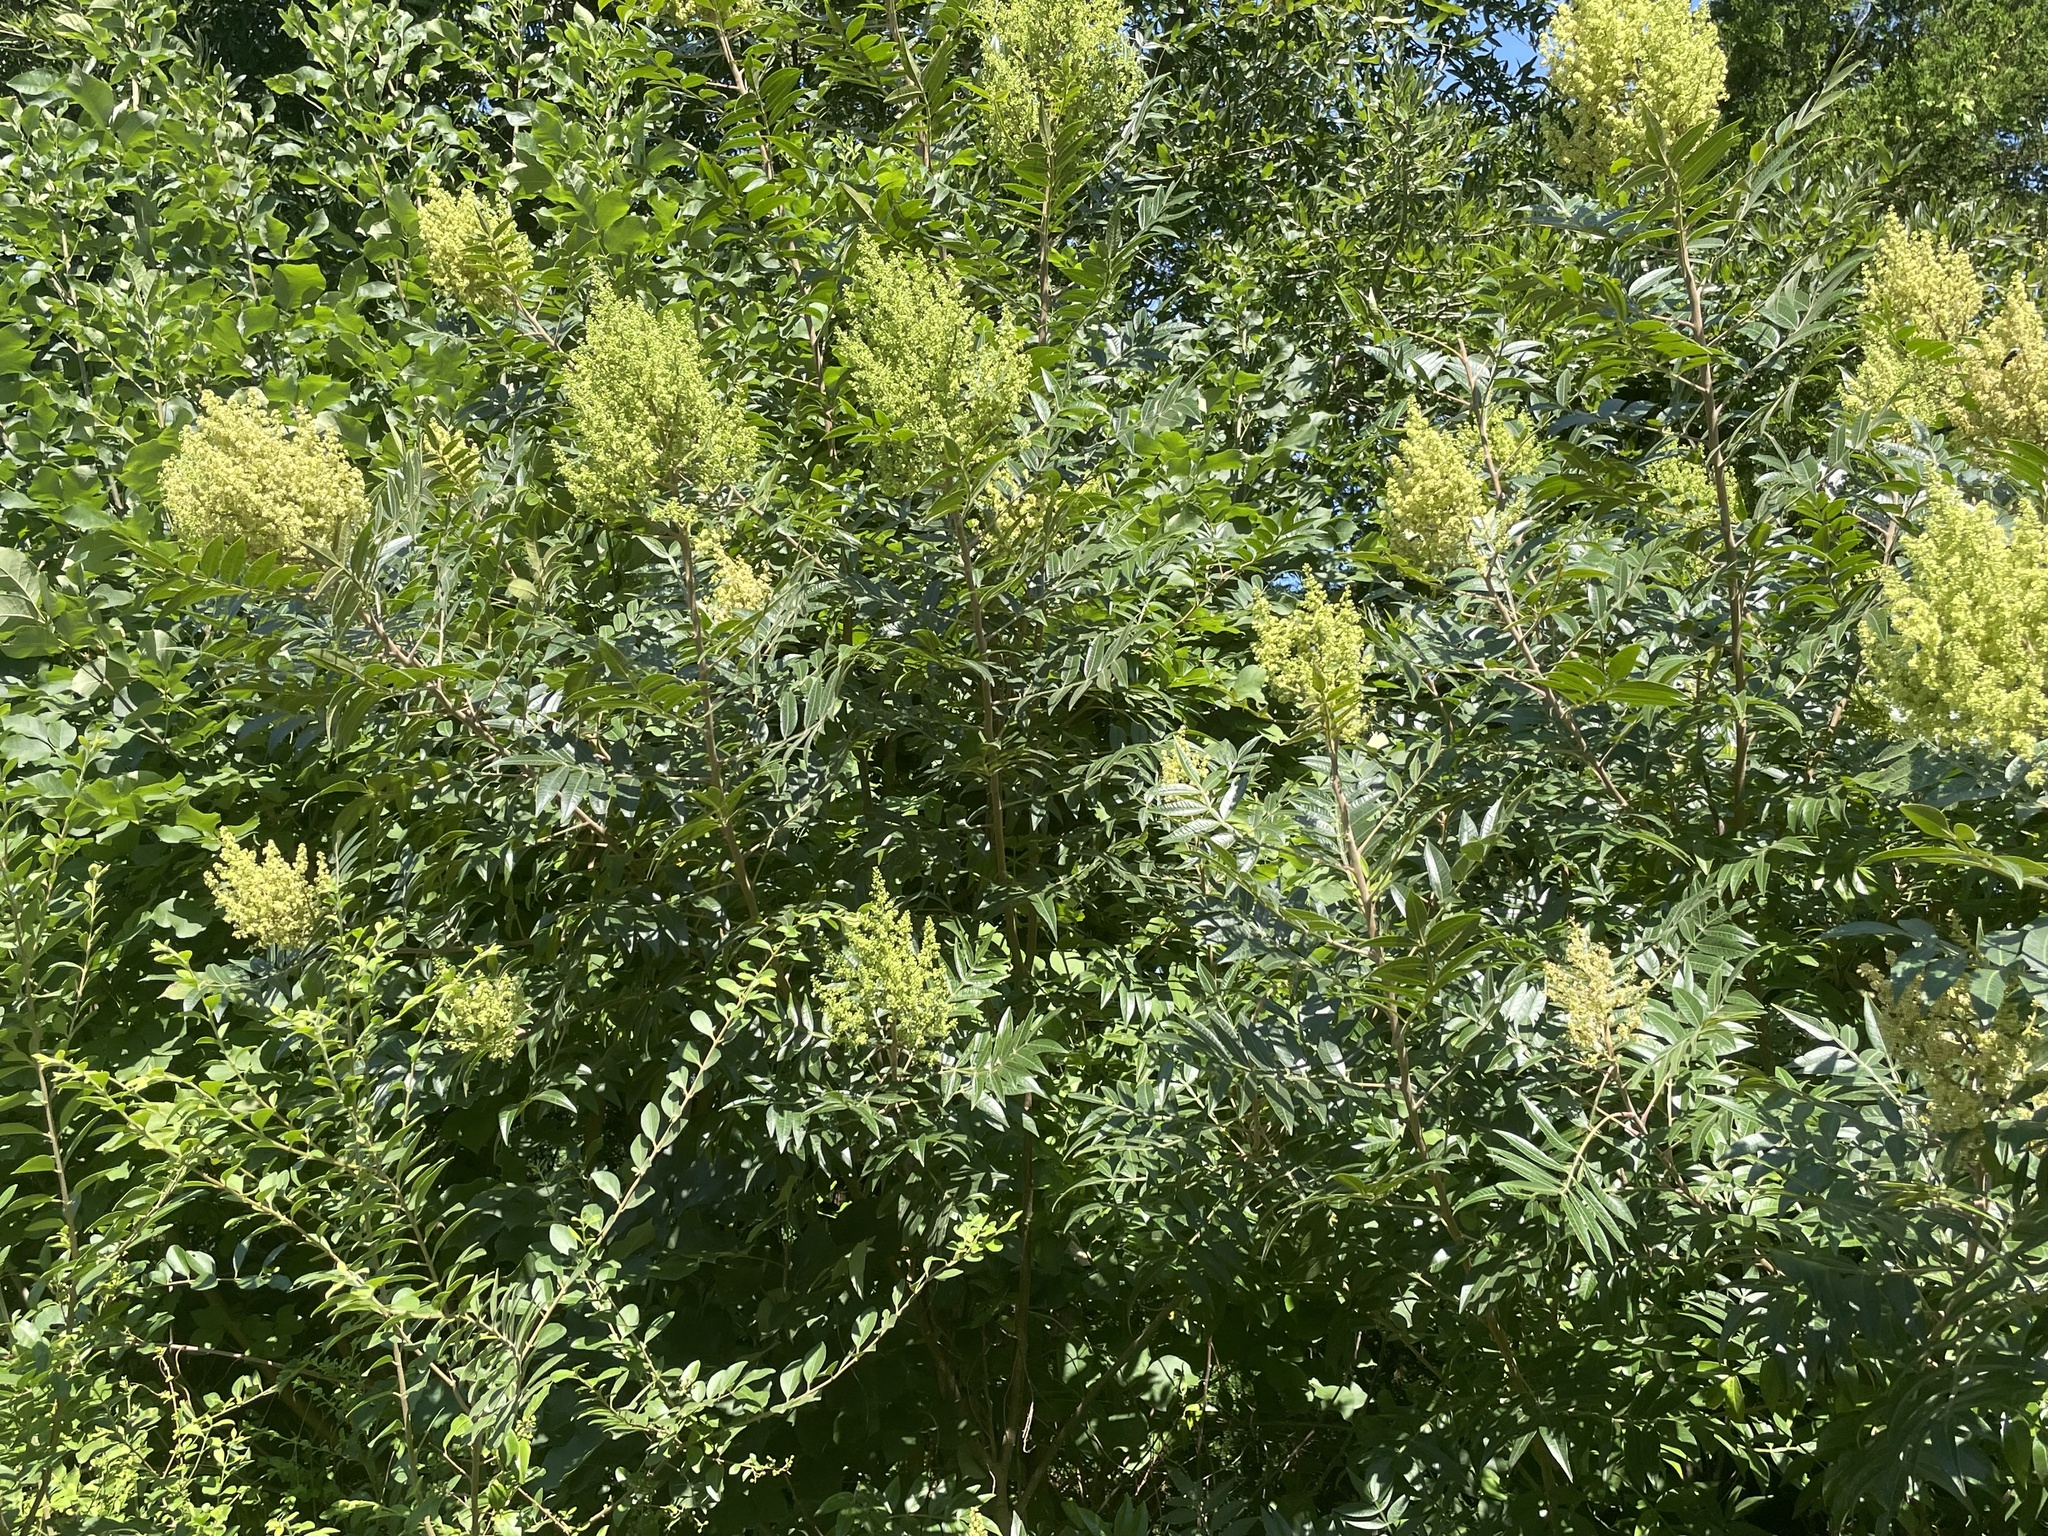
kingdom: Plantae
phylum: Tracheophyta
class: Magnoliopsida
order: Sapindales
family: Anacardiaceae
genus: Rhus
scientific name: Rhus copallina
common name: Shining sumac
